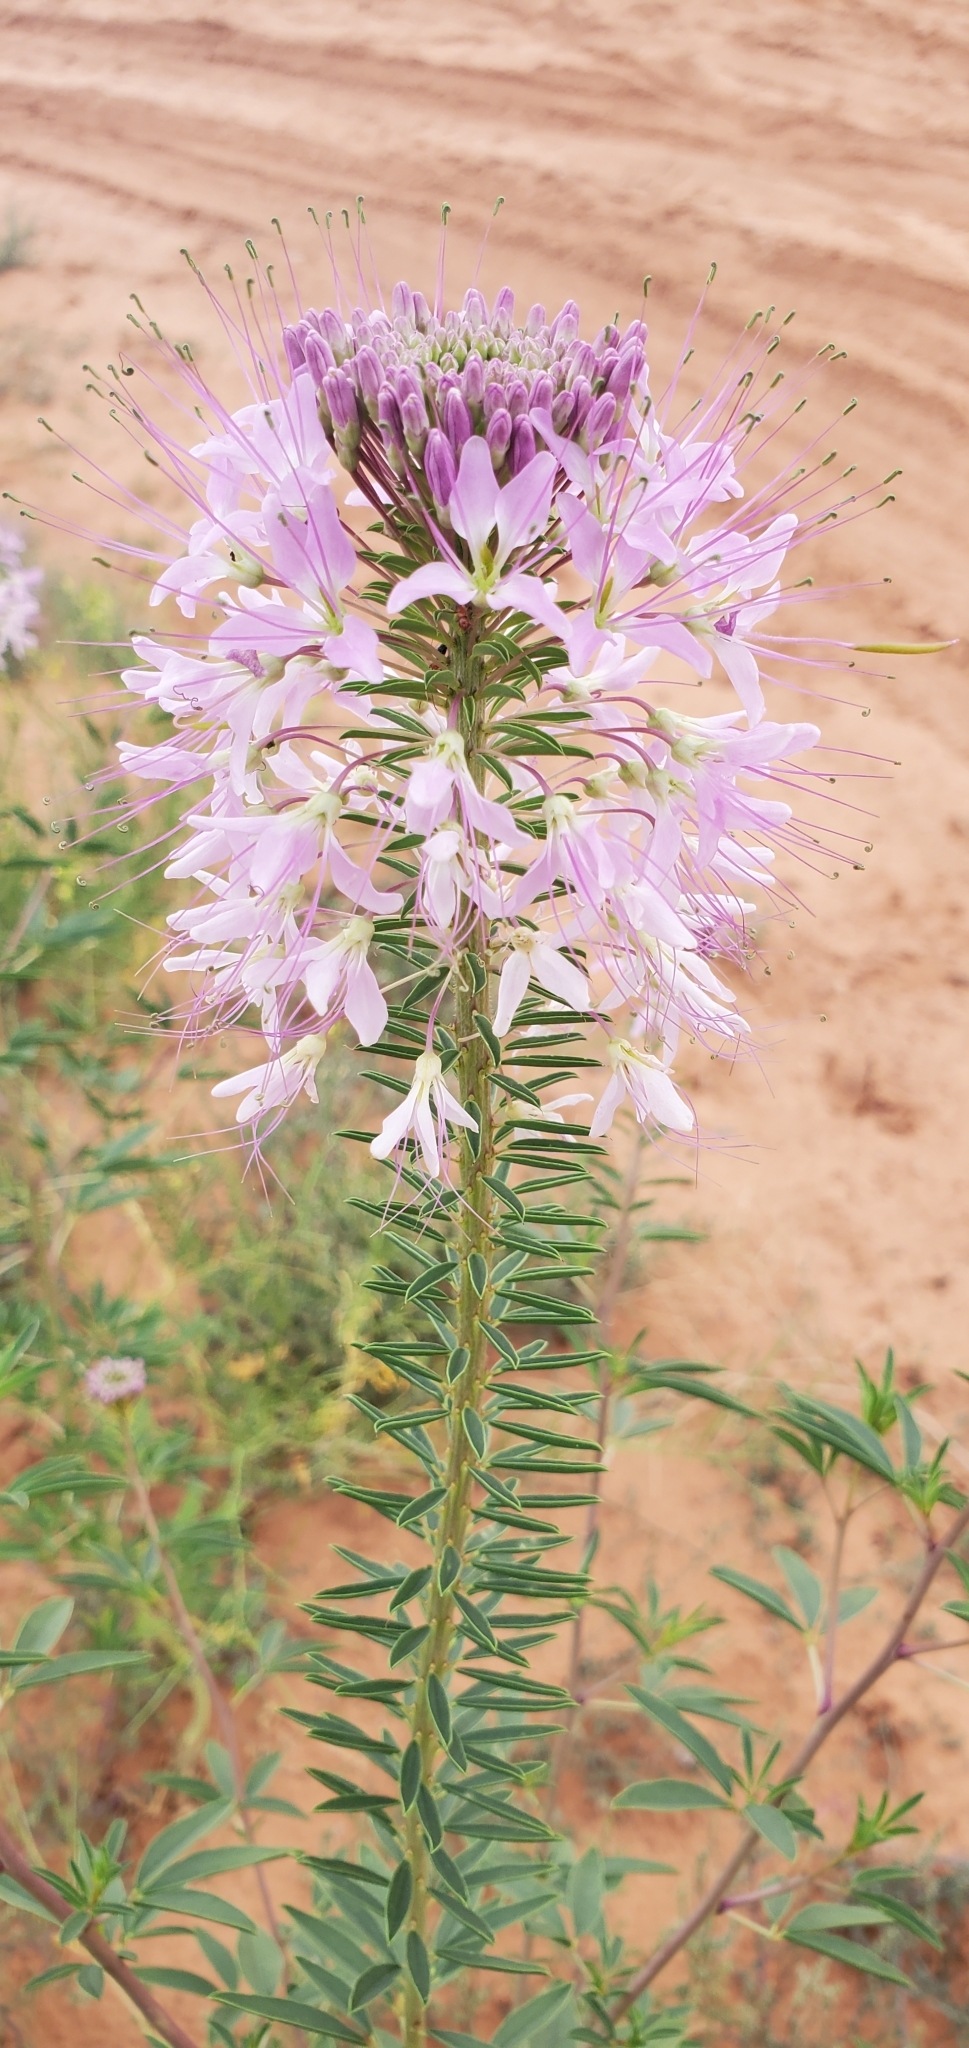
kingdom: Plantae
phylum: Tracheophyta
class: Magnoliopsida
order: Brassicales
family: Cleomaceae
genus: Cleomella
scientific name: Cleomella serrulata
